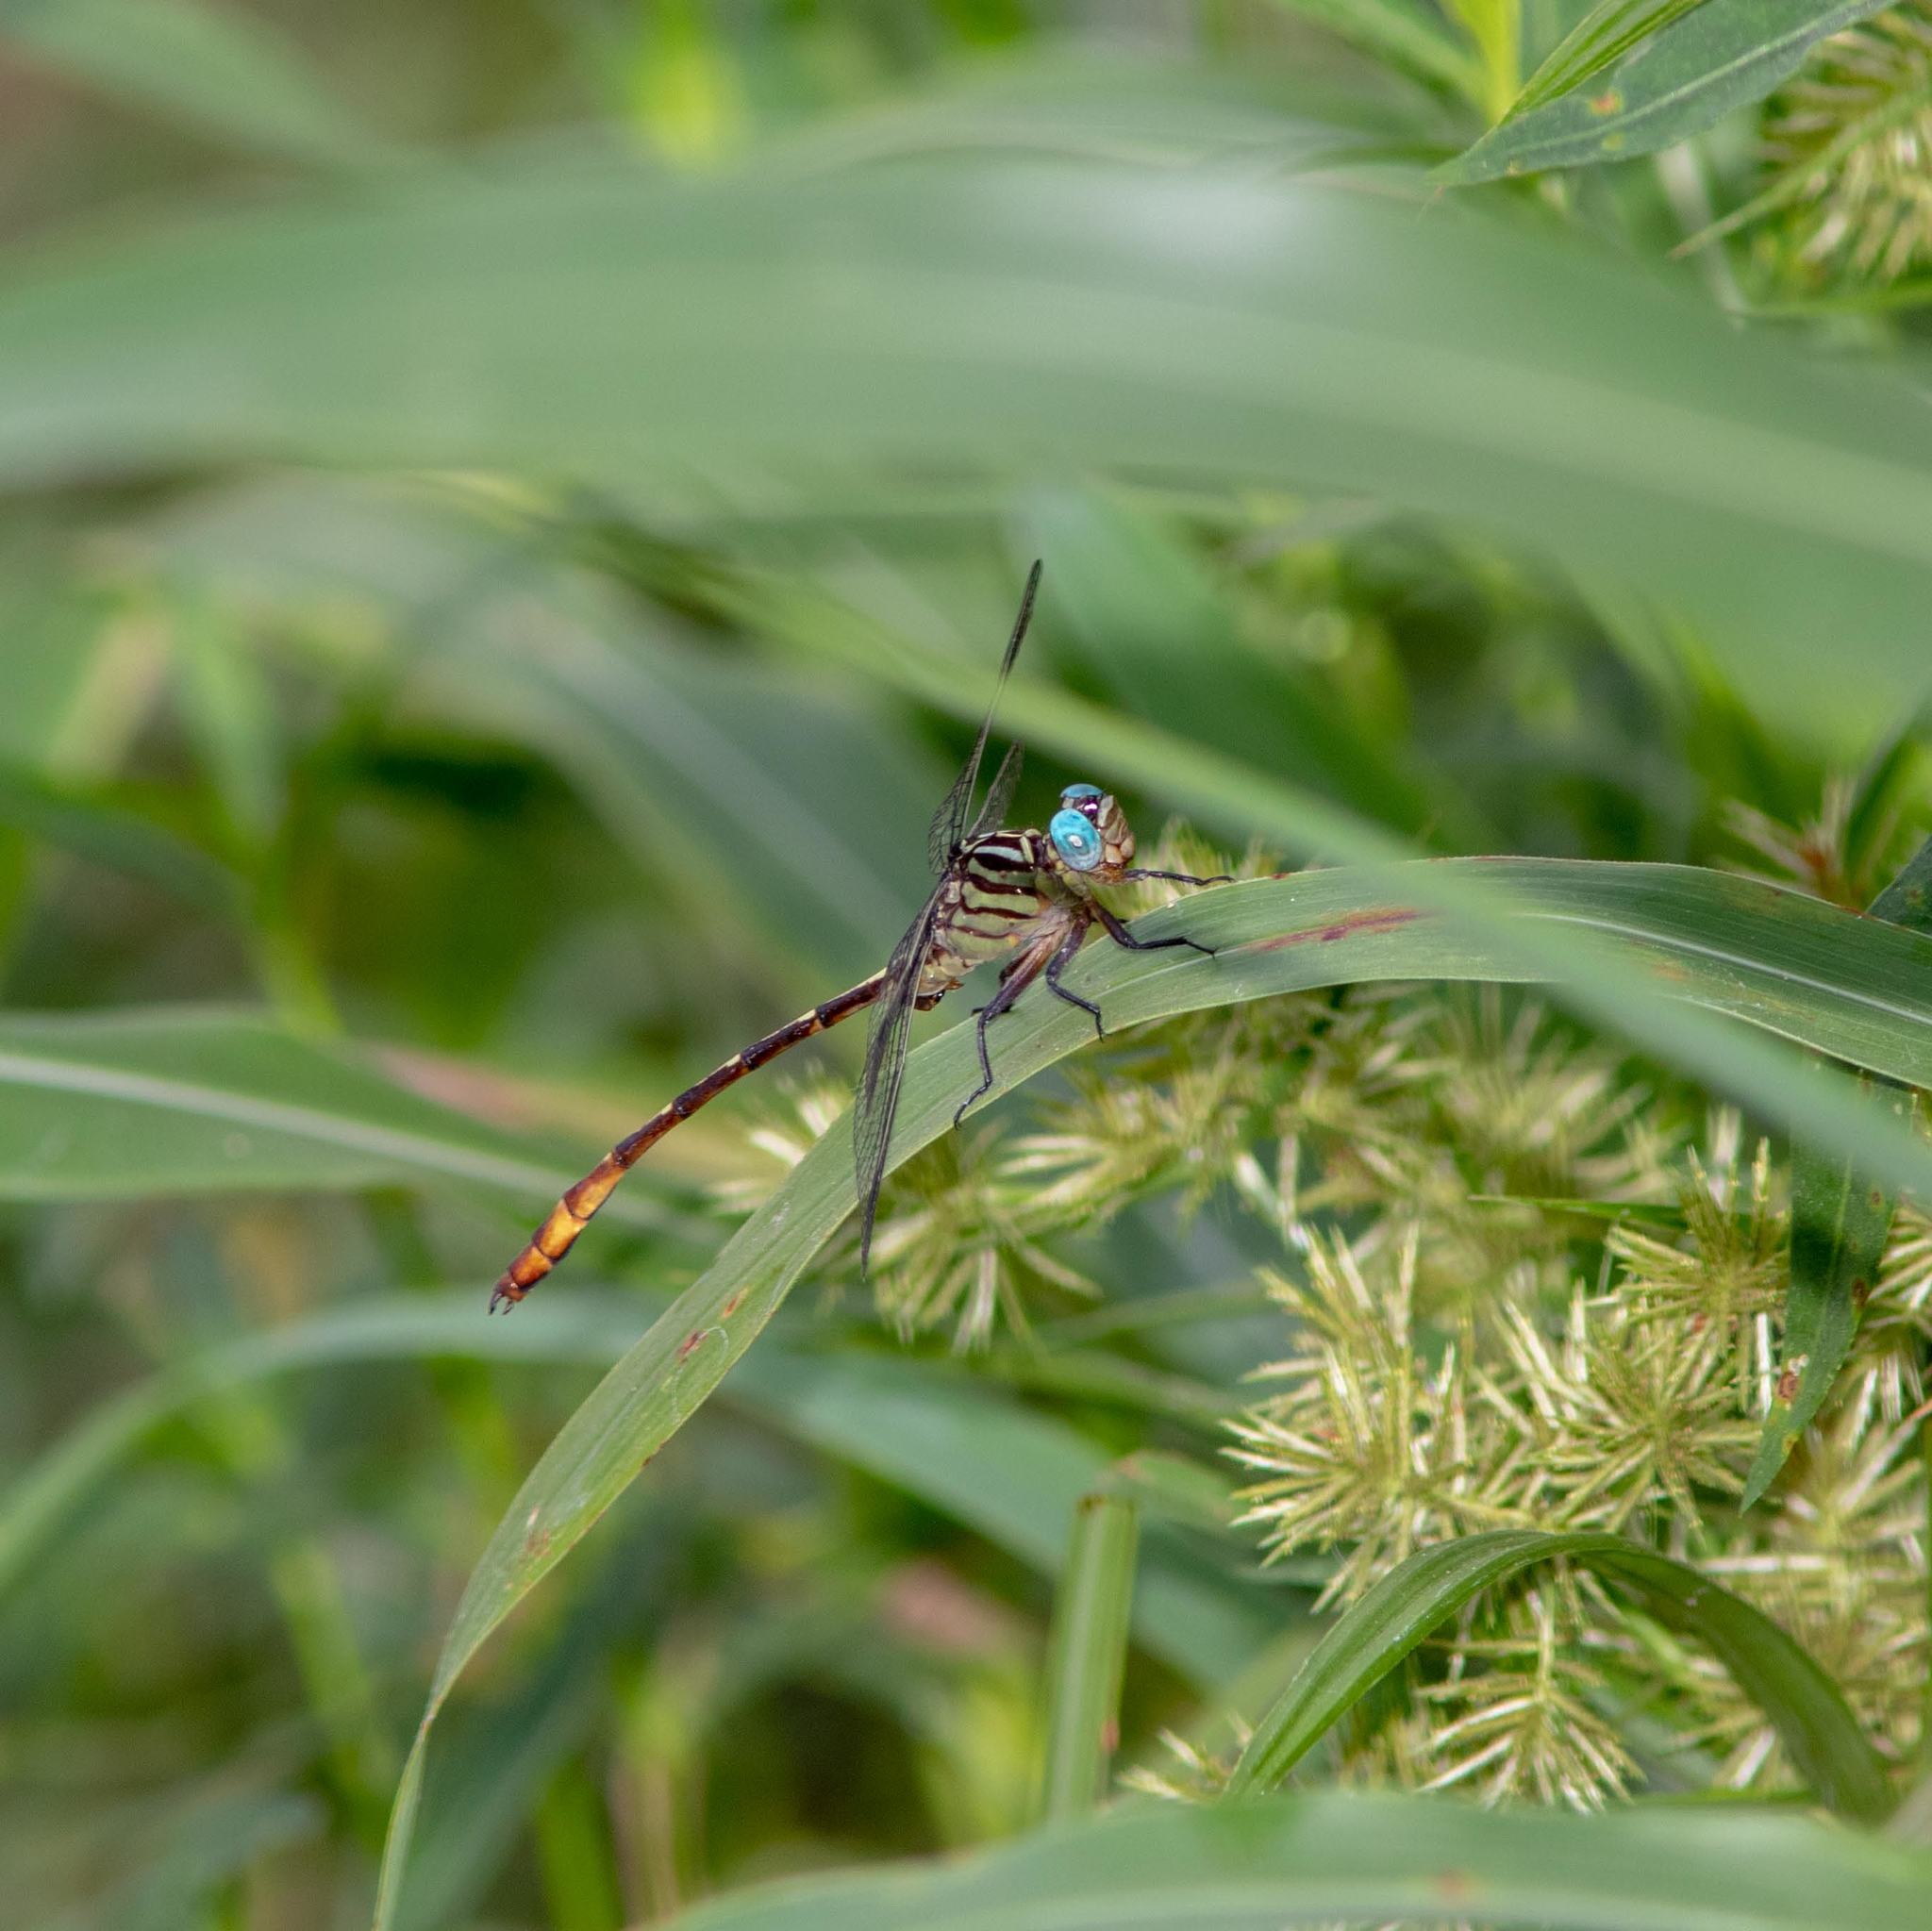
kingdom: Animalia
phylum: Arthropoda
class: Insecta
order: Odonata
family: Gomphidae
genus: Stylurus
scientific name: Stylurus plagiatus
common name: Russet-tipped clubtail
